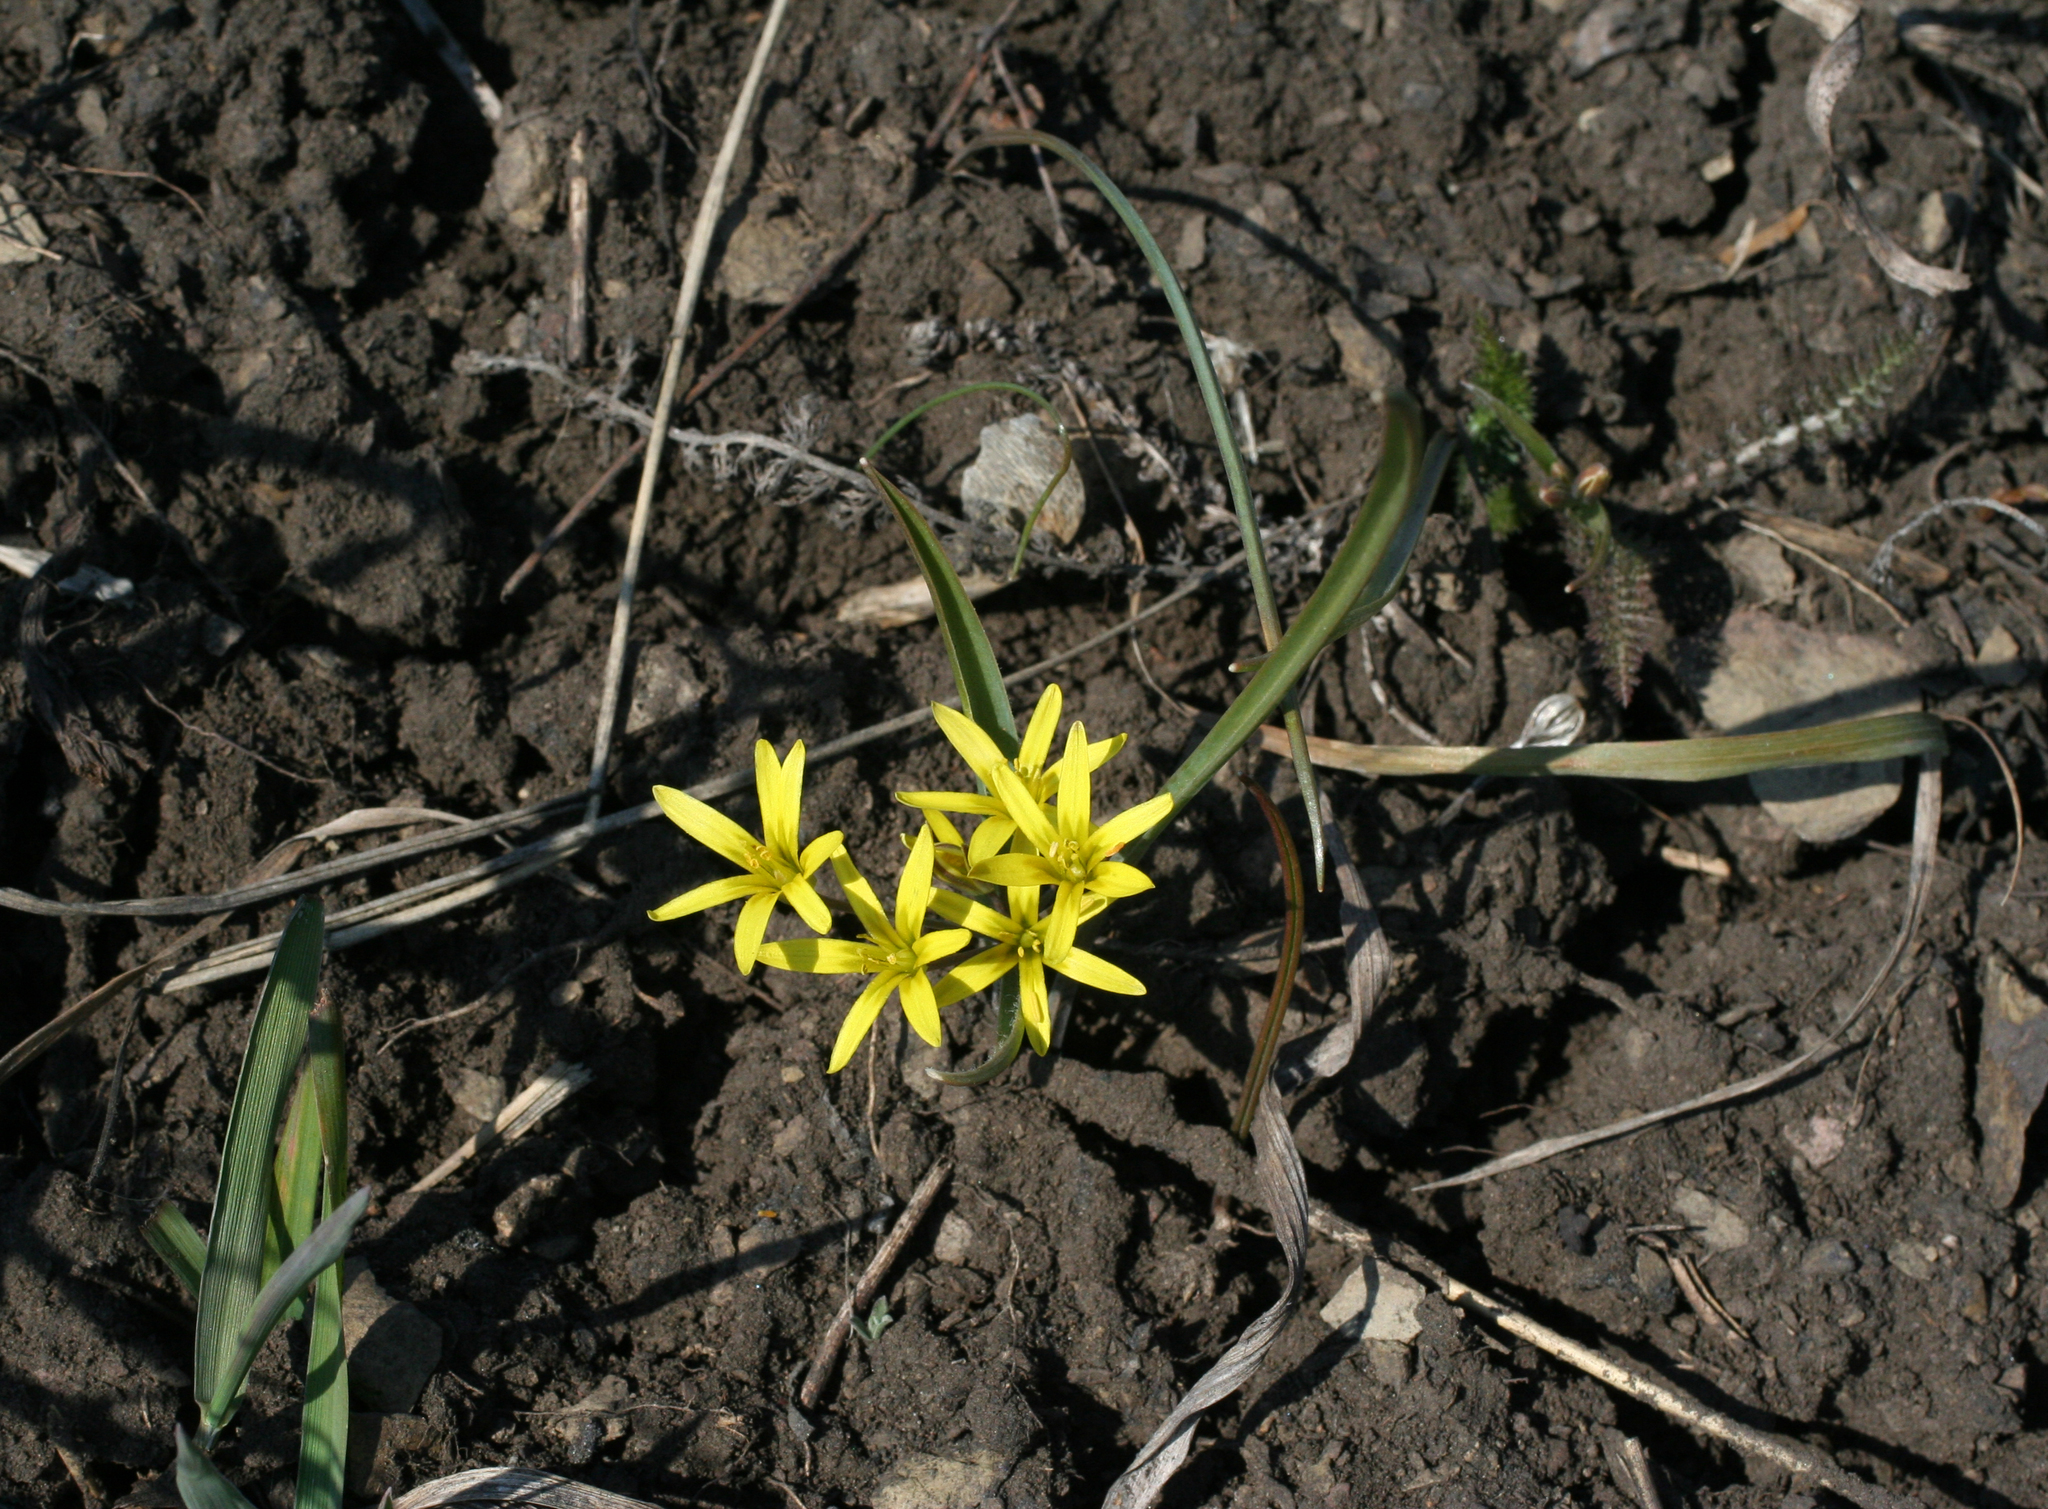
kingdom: Plantae
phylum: Tracheophyta
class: Liliopsida
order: Liliales
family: Liliaceae
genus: Gagea
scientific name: Gagea fedtschenkoana
